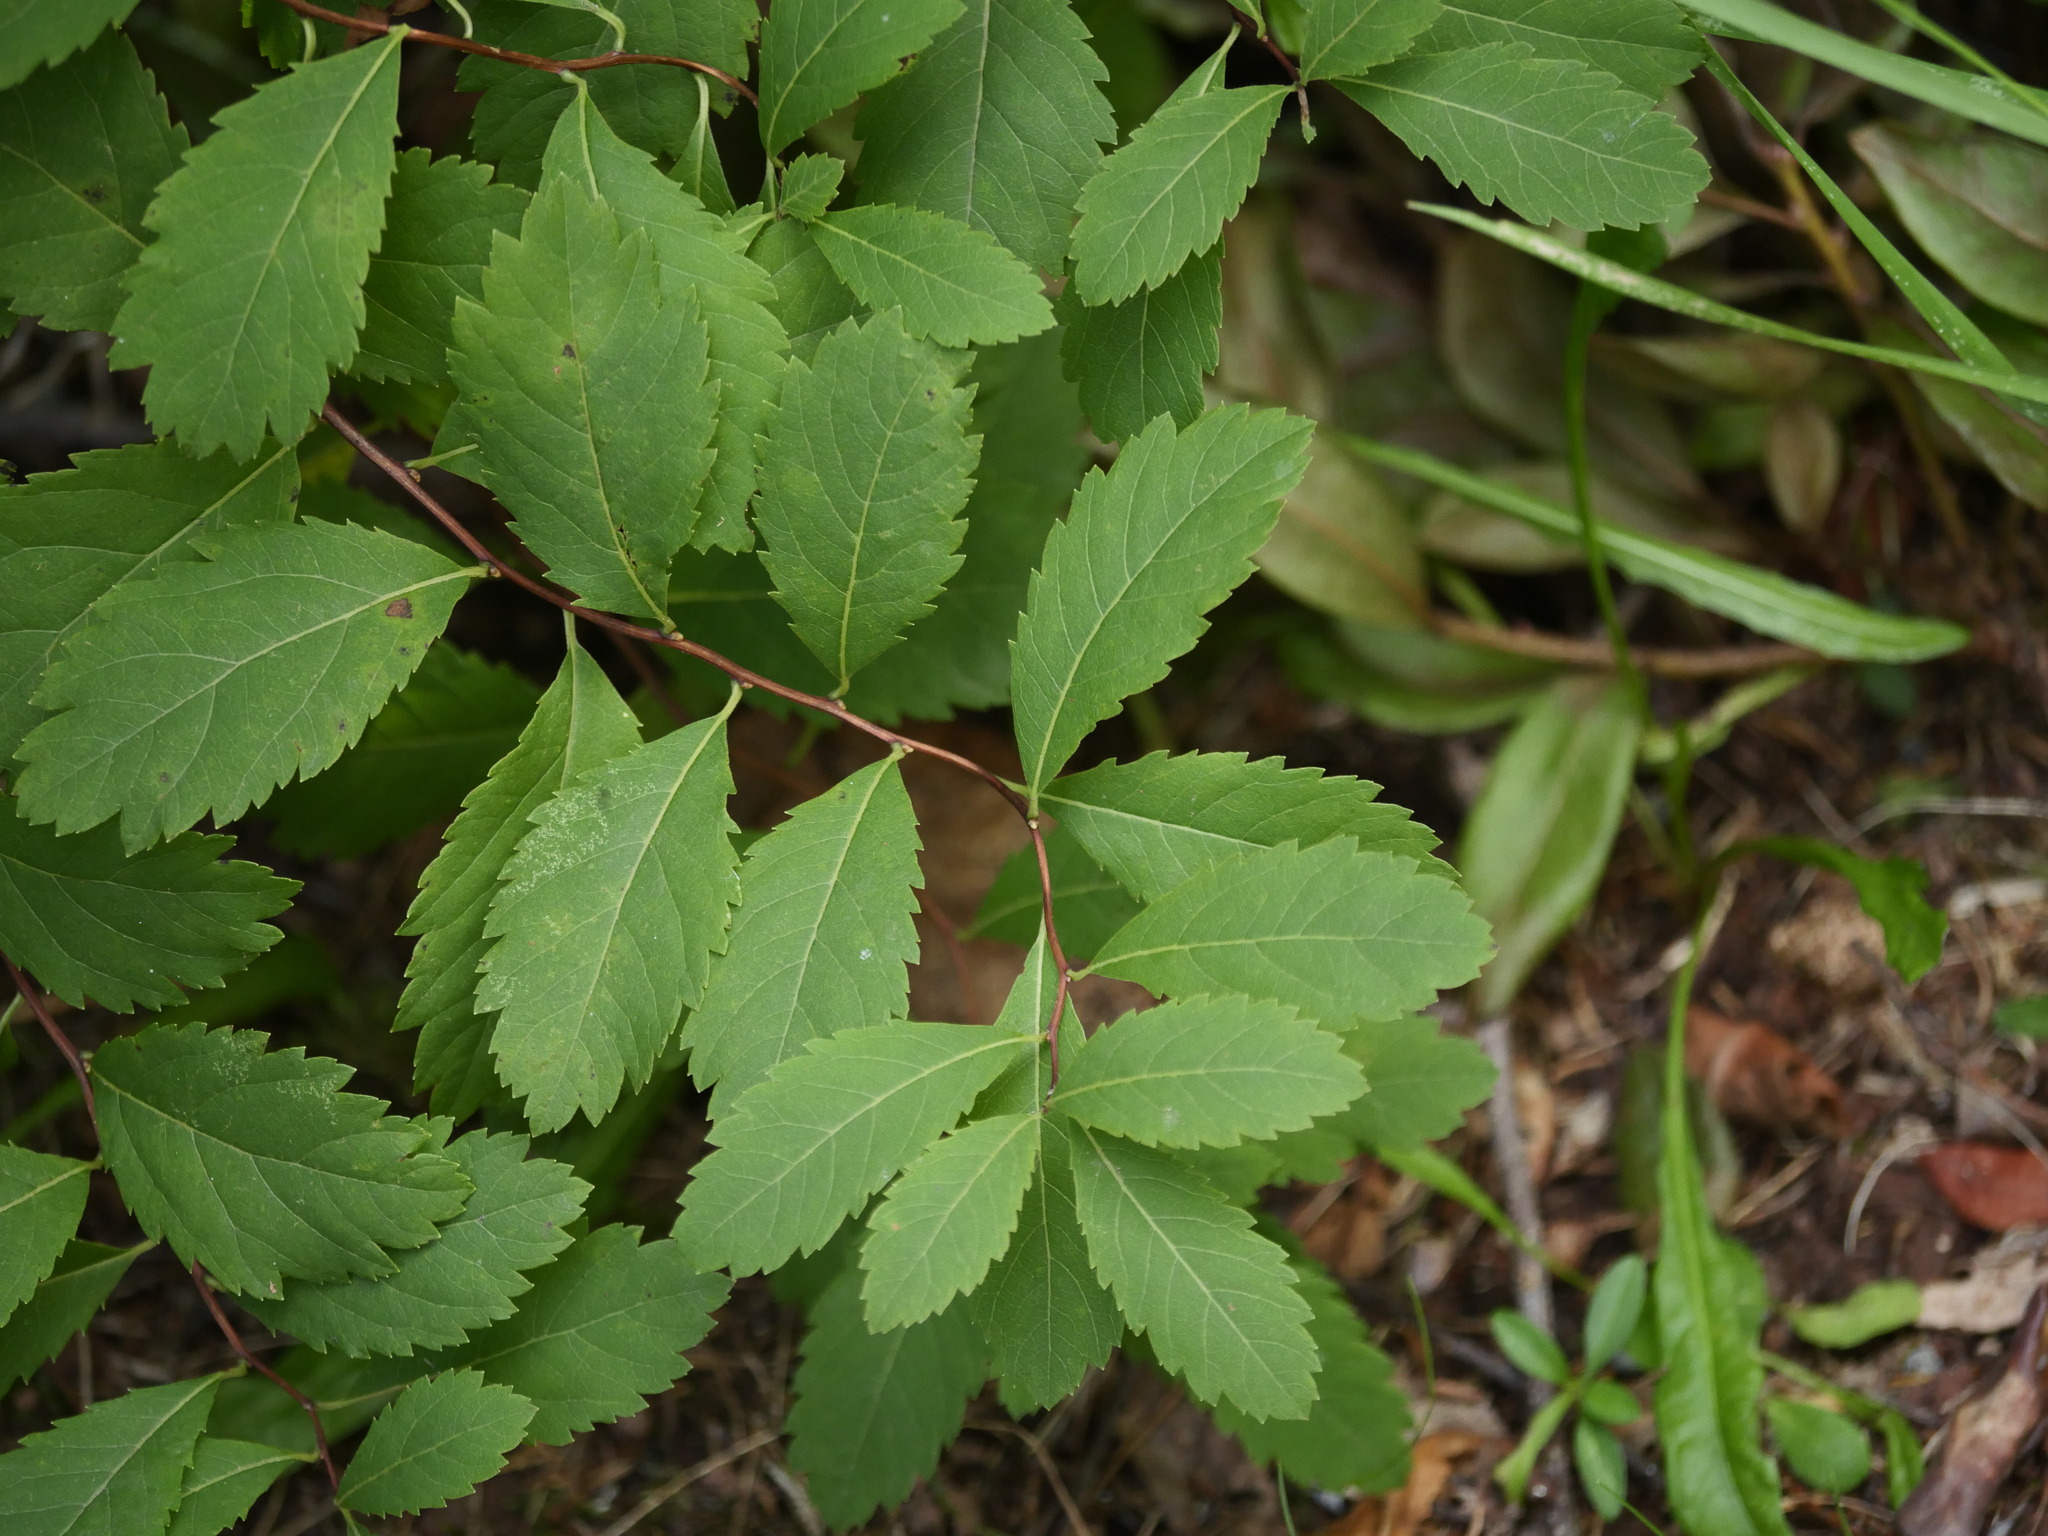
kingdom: Plantae
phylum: Tracheophyta
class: Magnoliopsida
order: Rosales
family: Rosaceae
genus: Spiraea
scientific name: Spiraea alba
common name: Pale bridewort
